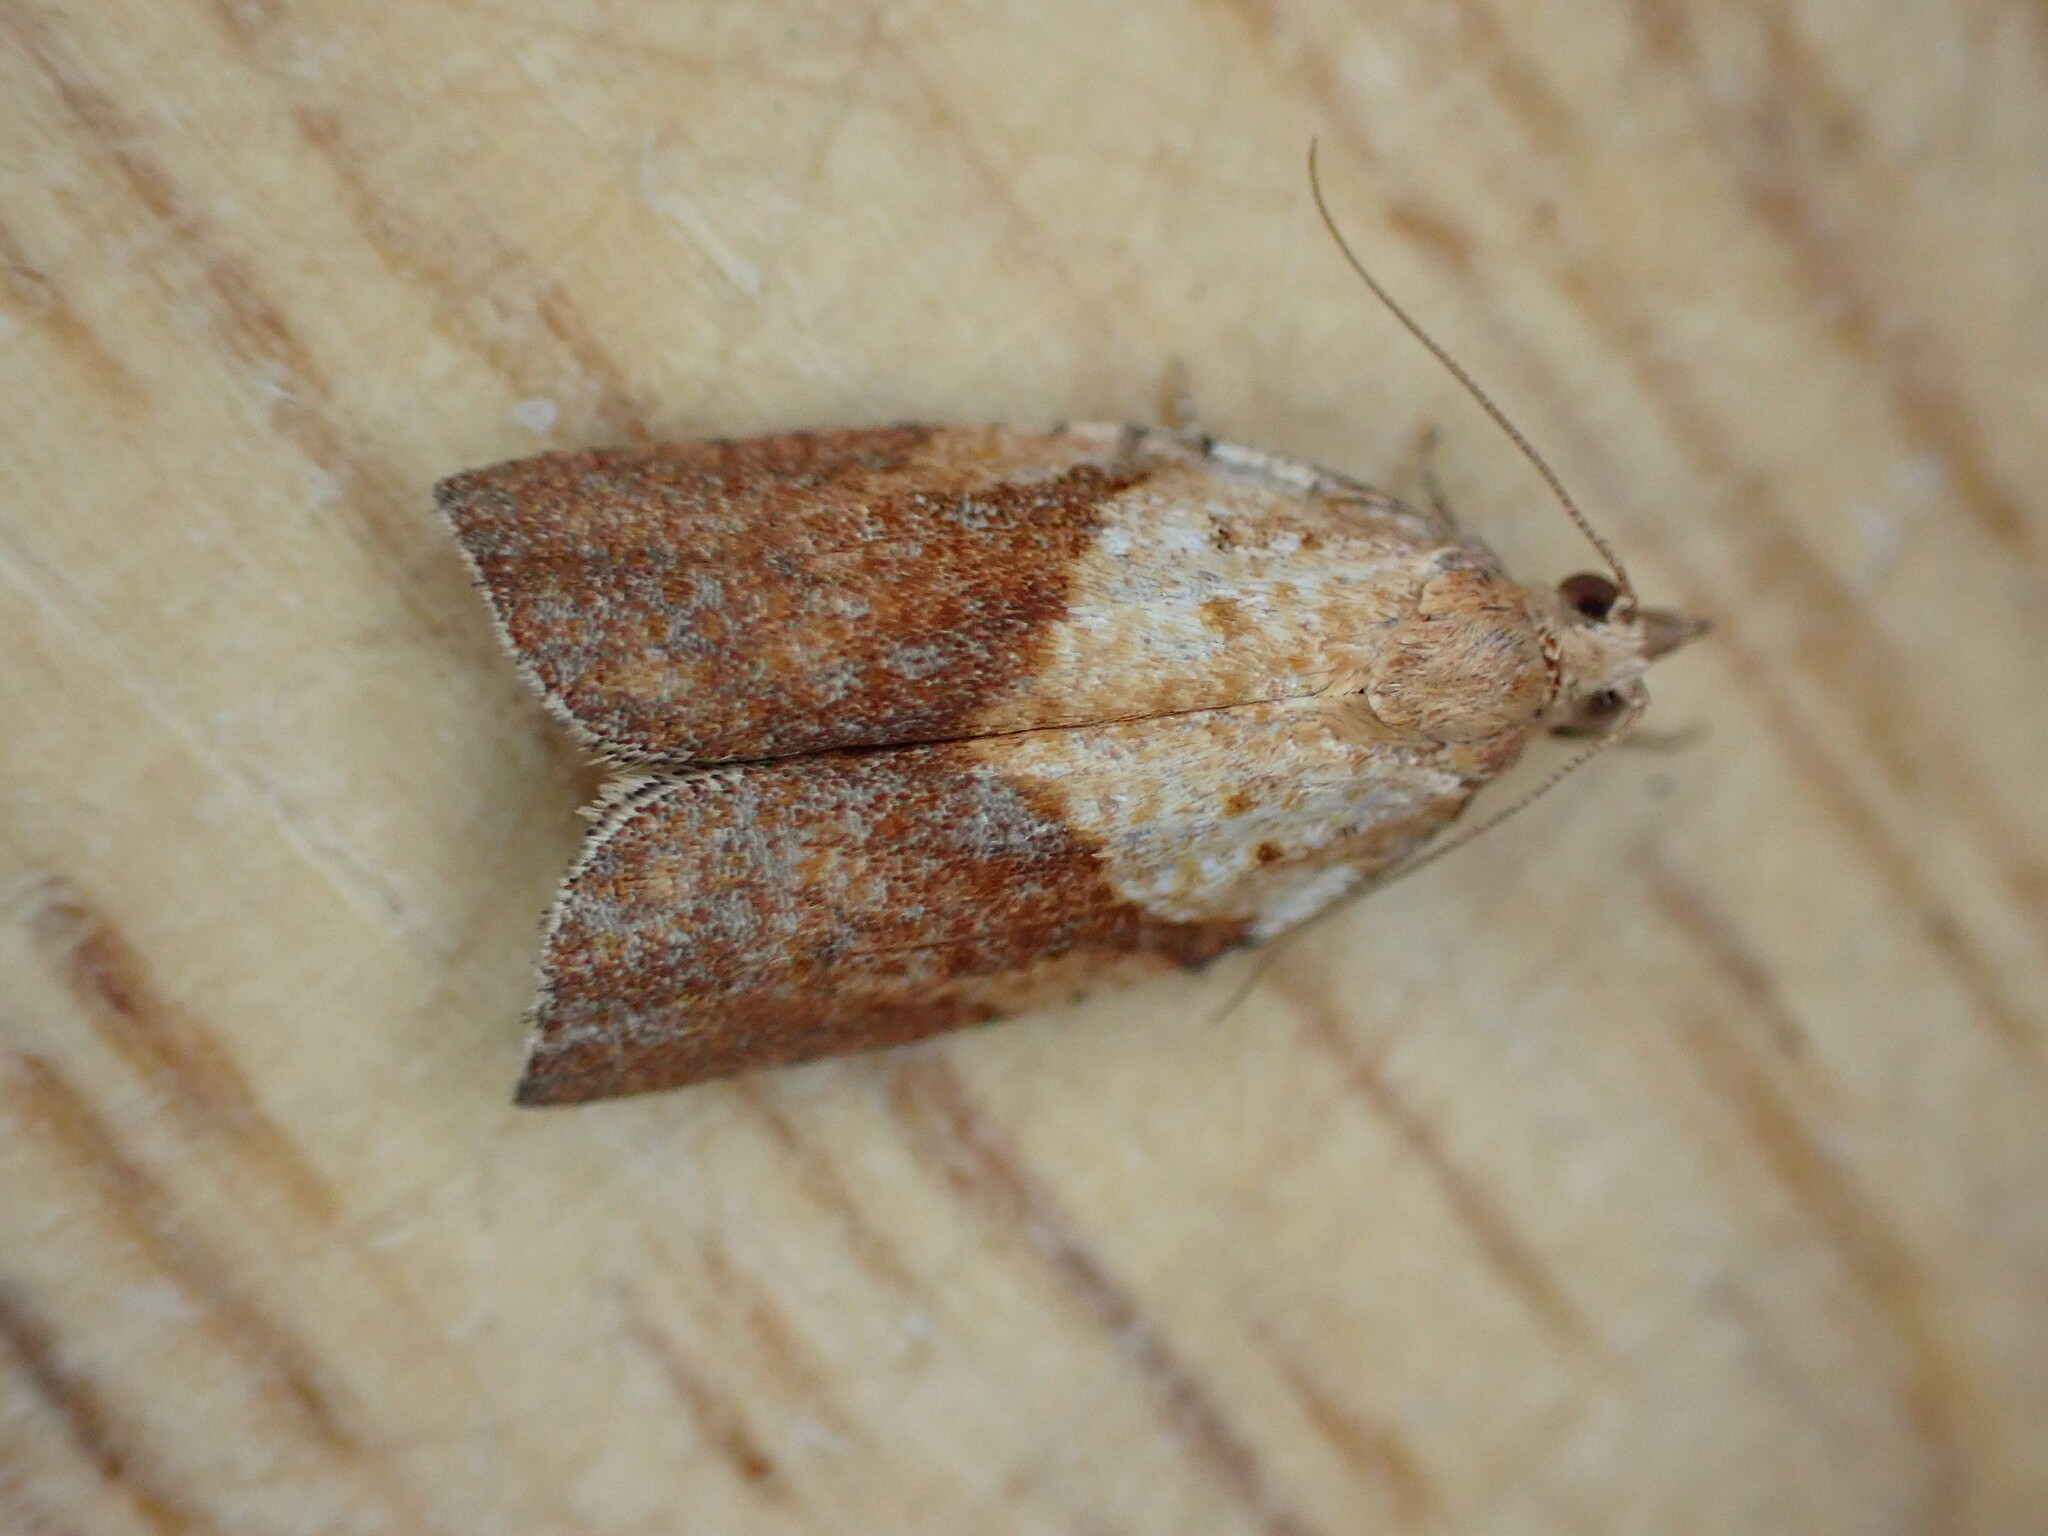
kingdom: Animalia
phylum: Arthropoda
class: Insecta
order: Lepidoptera
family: Tortricidae
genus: Epiphyas
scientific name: Epiphyas postvittana
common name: Light brown apple moth
